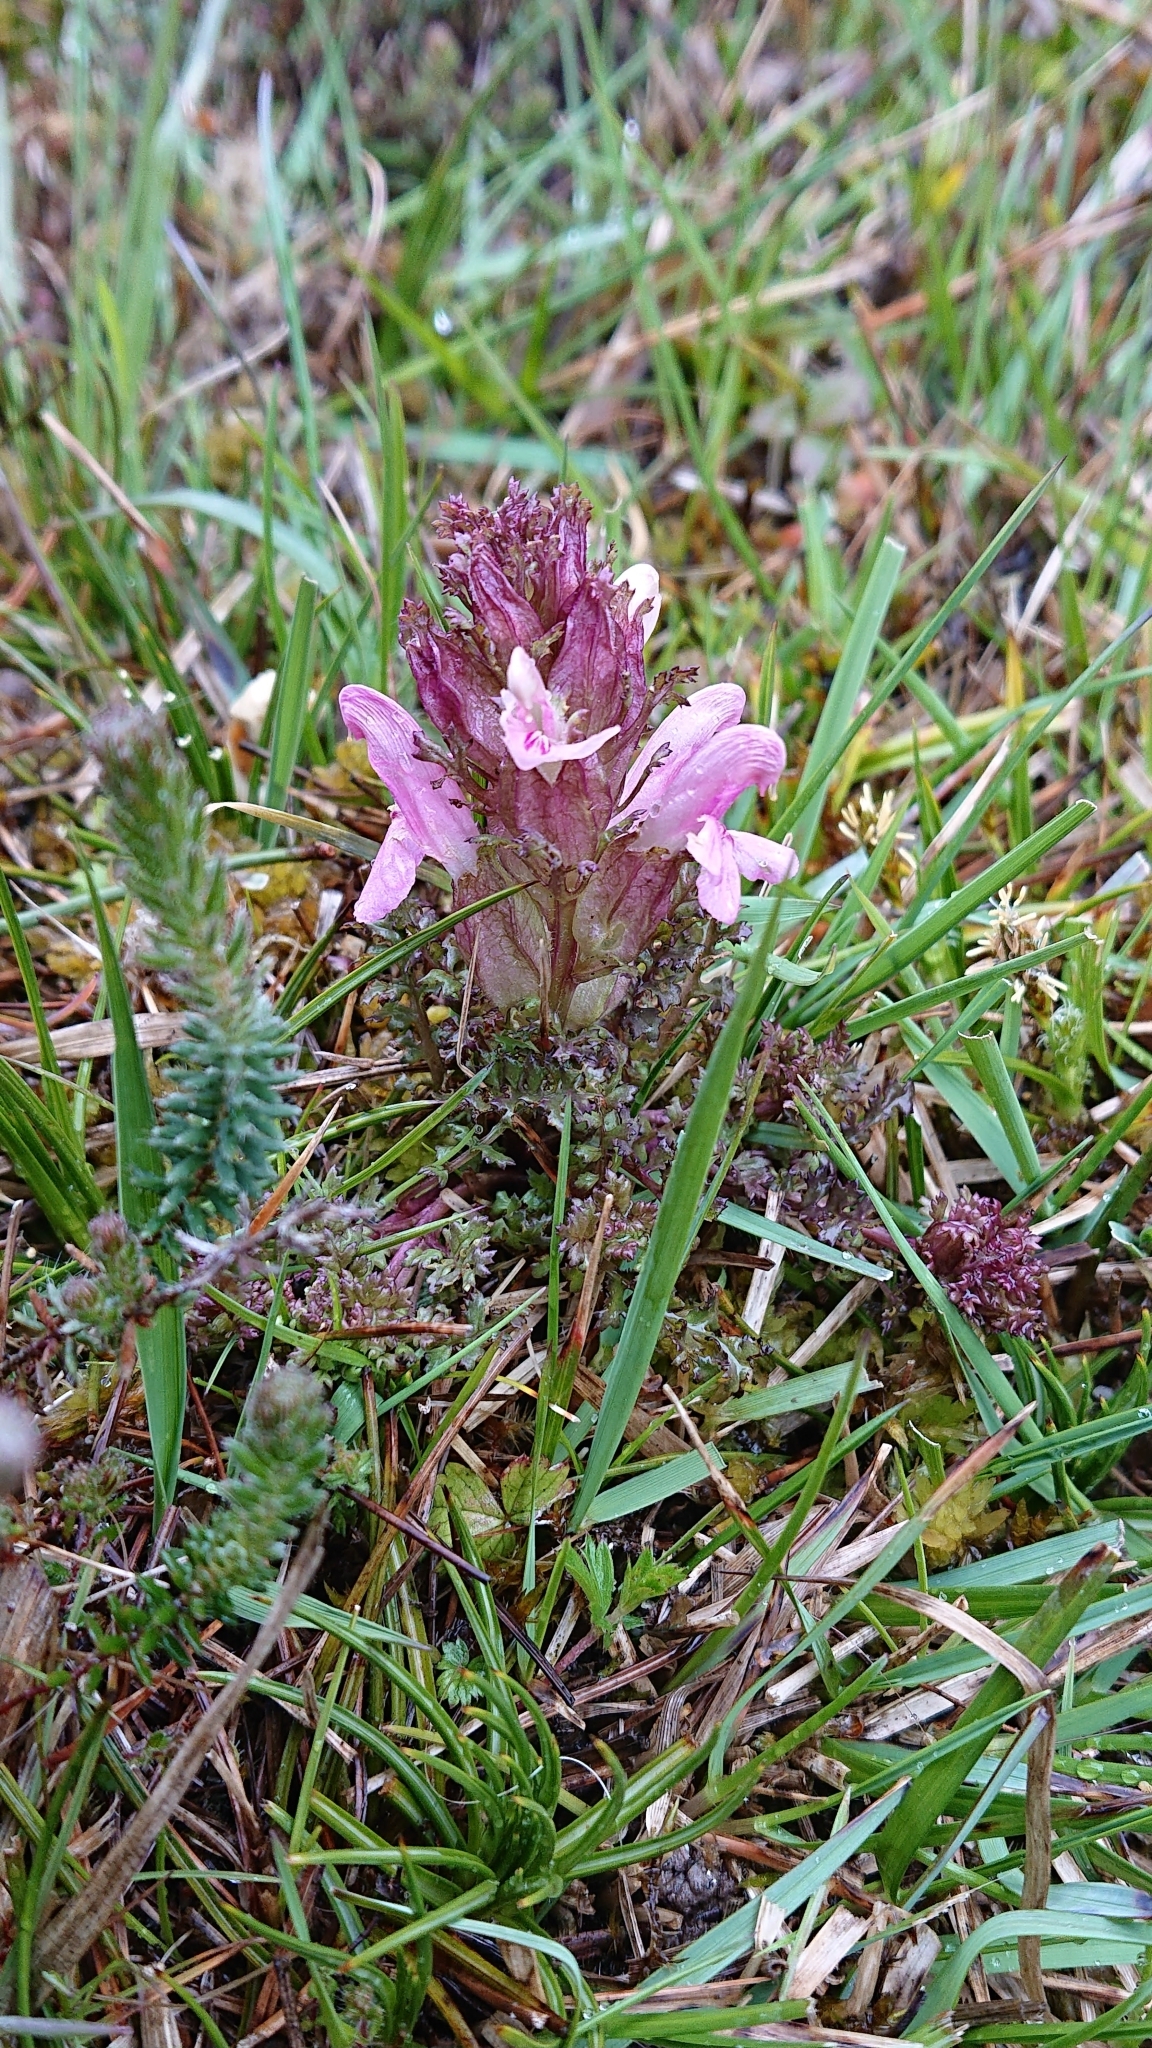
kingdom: Plantae
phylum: Tracheophyta
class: Magnoliopsida
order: Lamiales
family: Orobanchaceae
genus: Pedicularis
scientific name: Pedicularis sylvatica
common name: Lousewort
